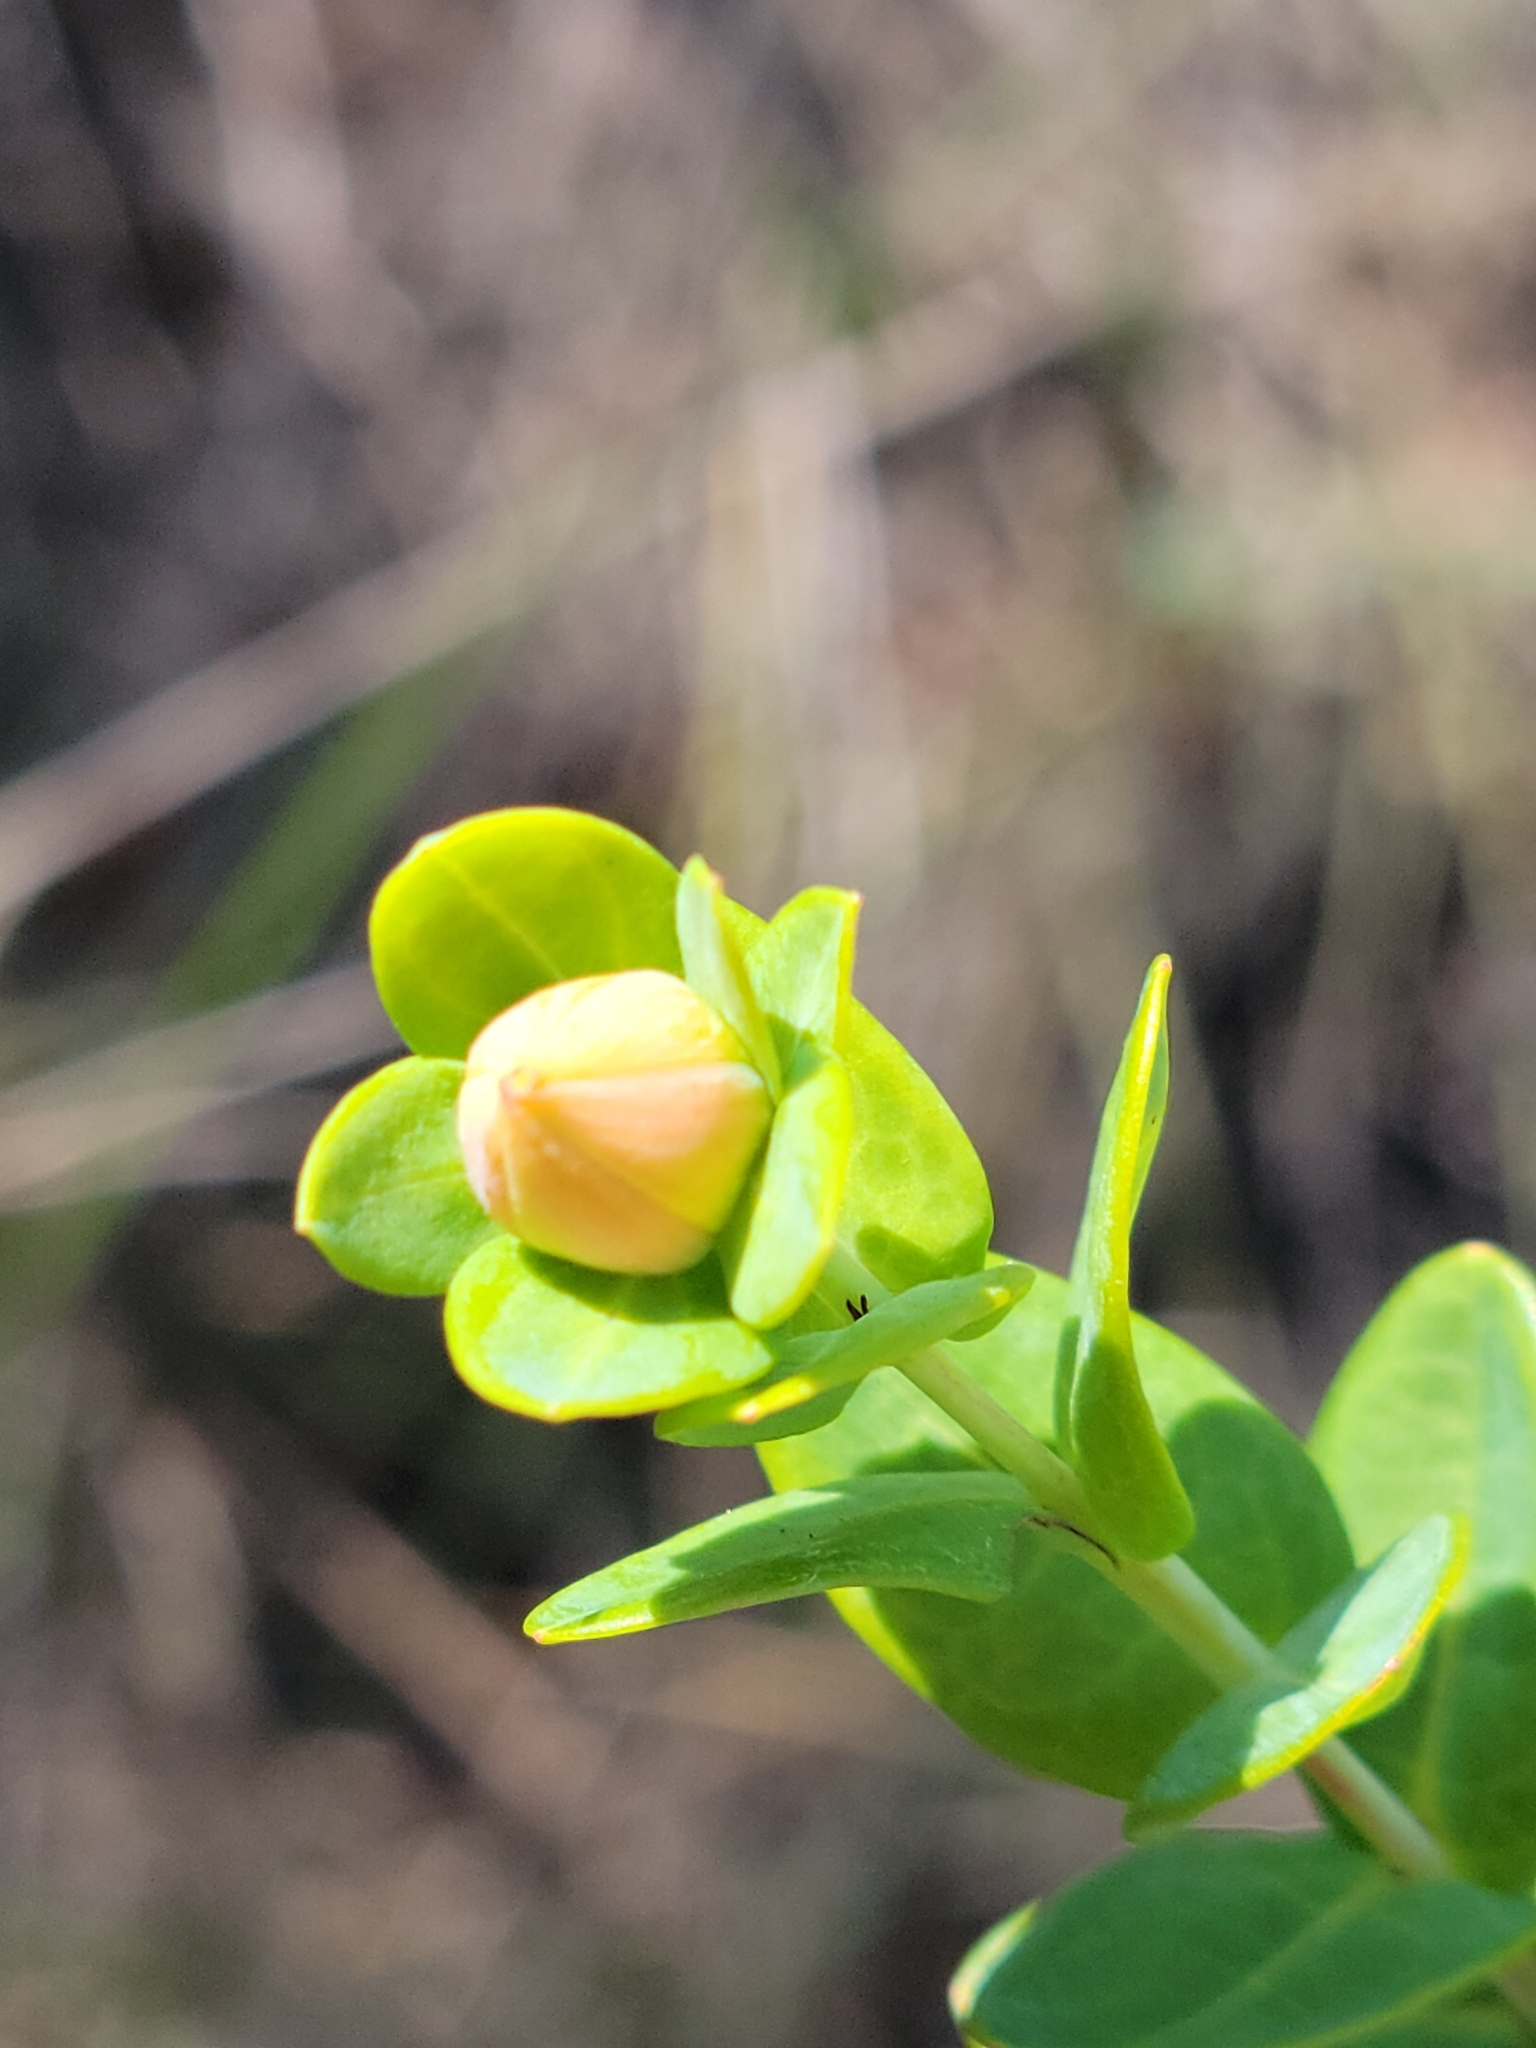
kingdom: Plantae
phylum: Tracheophyta
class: Magnoliopsida
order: Malpighiales
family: Hypericaceae
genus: Hypericum
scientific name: Hypericum myrtifolium
